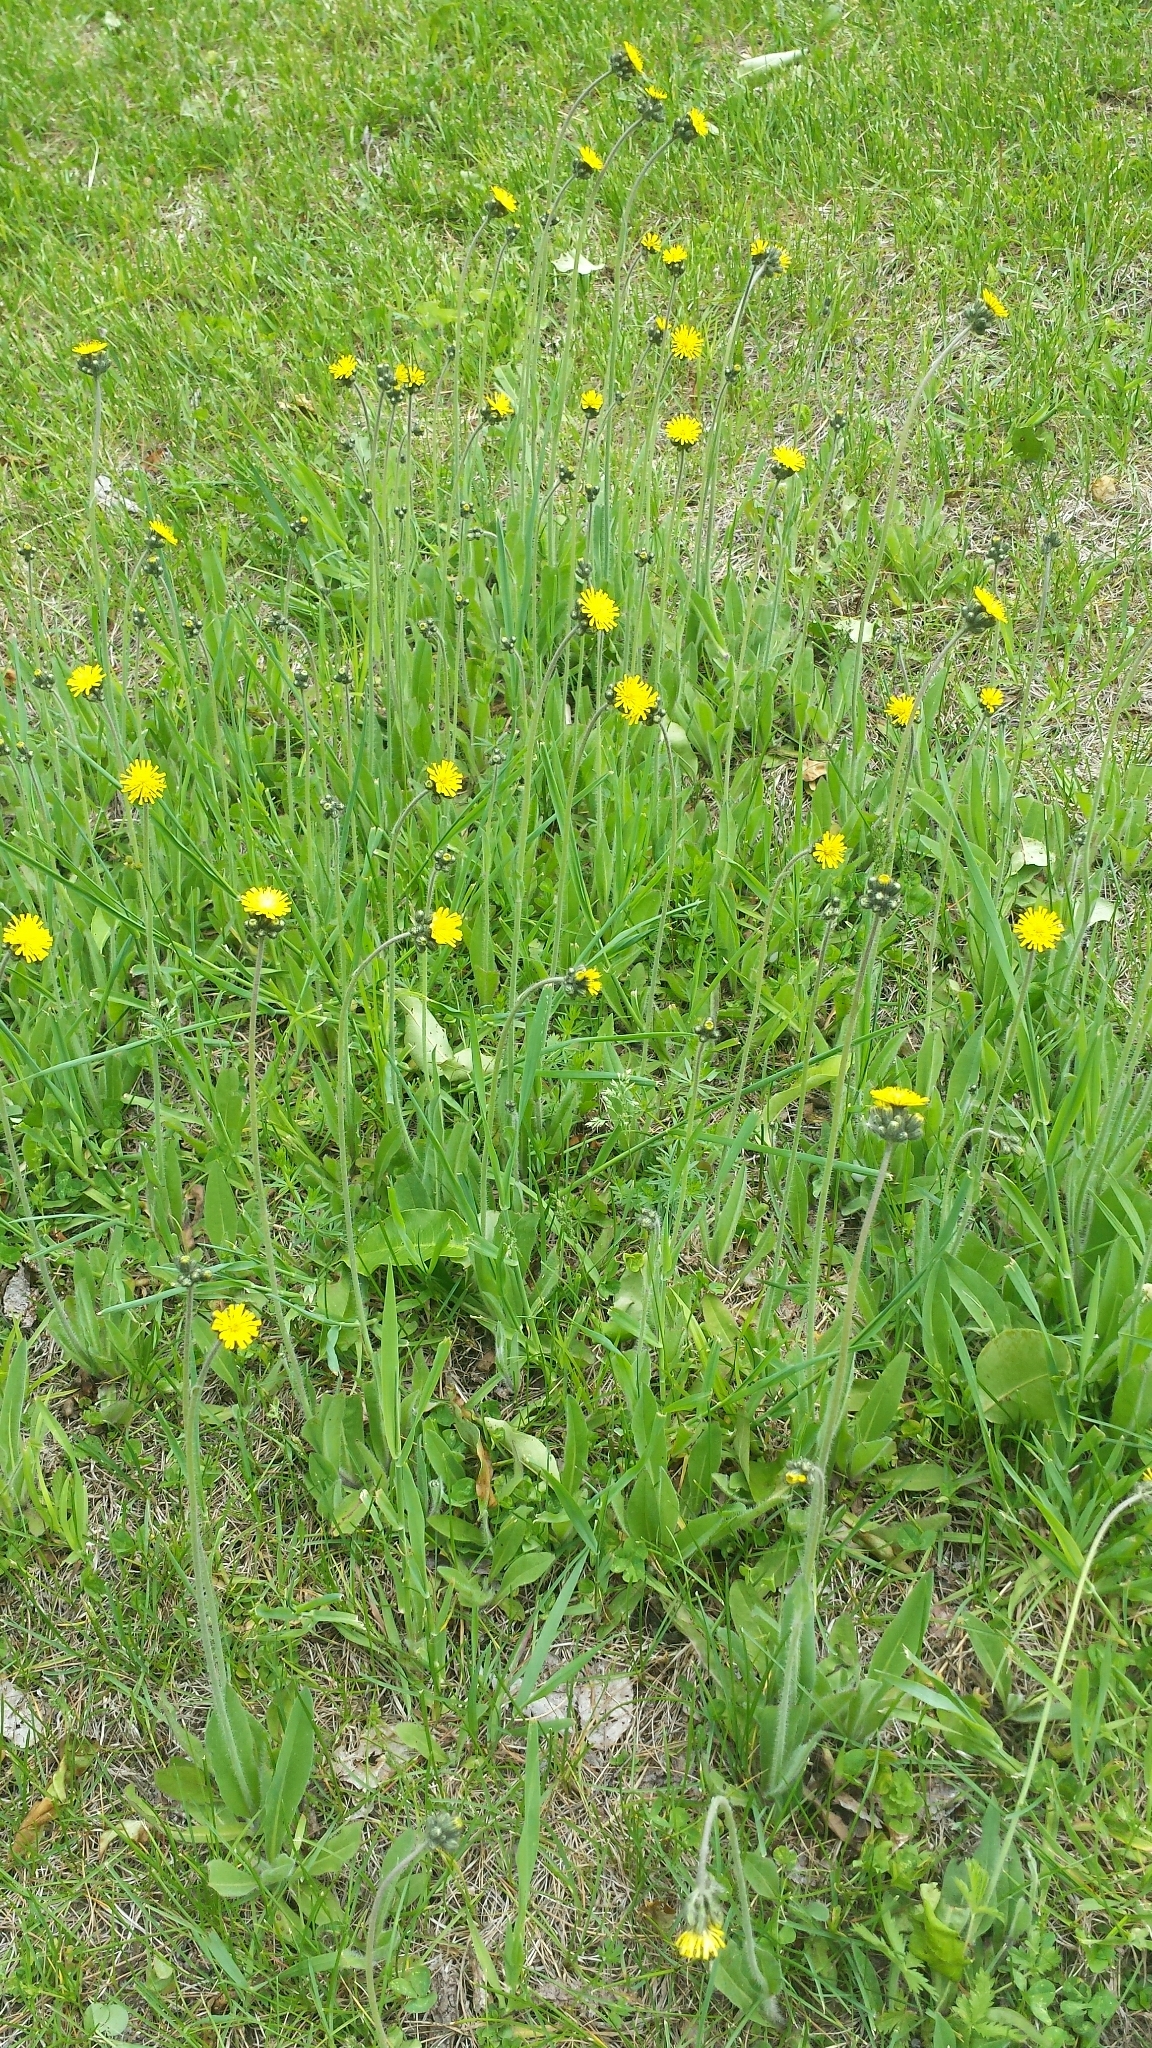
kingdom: Plantae
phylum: Tracheophyta
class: Magnoliopsida
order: Asterales
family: Asteraceae
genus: Pilosella
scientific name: Pilosella caespitosa
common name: Yellow fox-and-cubs
